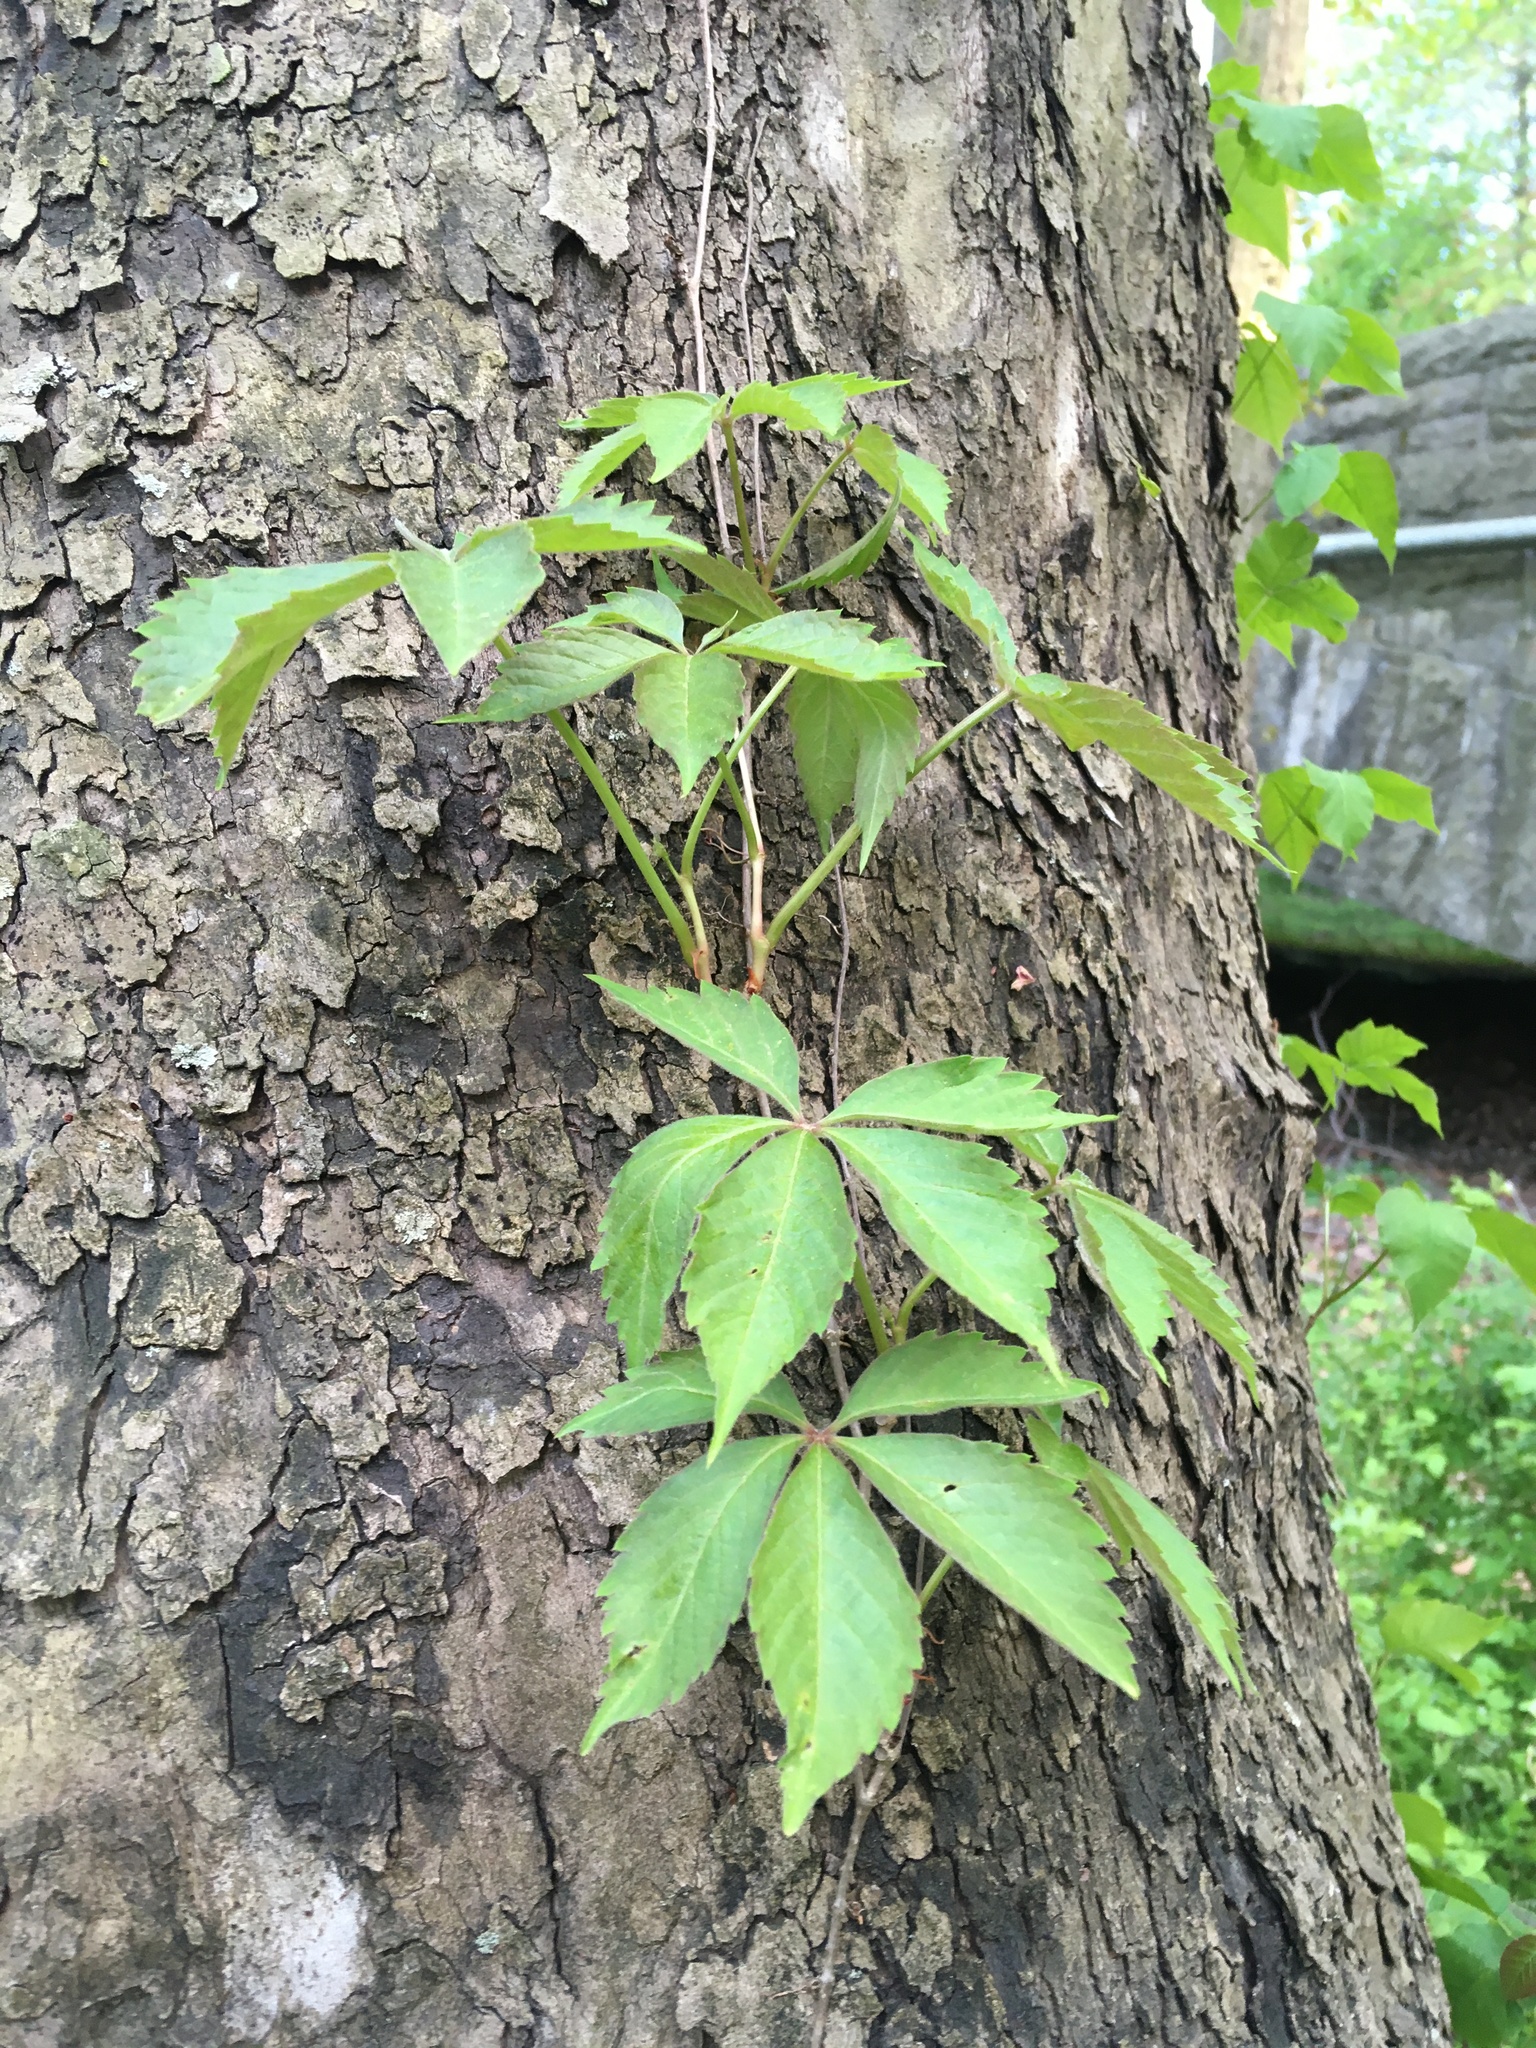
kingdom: Plantae
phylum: Tracheophyta
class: Magnoliopsida
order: Vitales
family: Vitaceae
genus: Parthenocissus
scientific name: Parthenocissus quinquefolia
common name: Virginia-creeper
